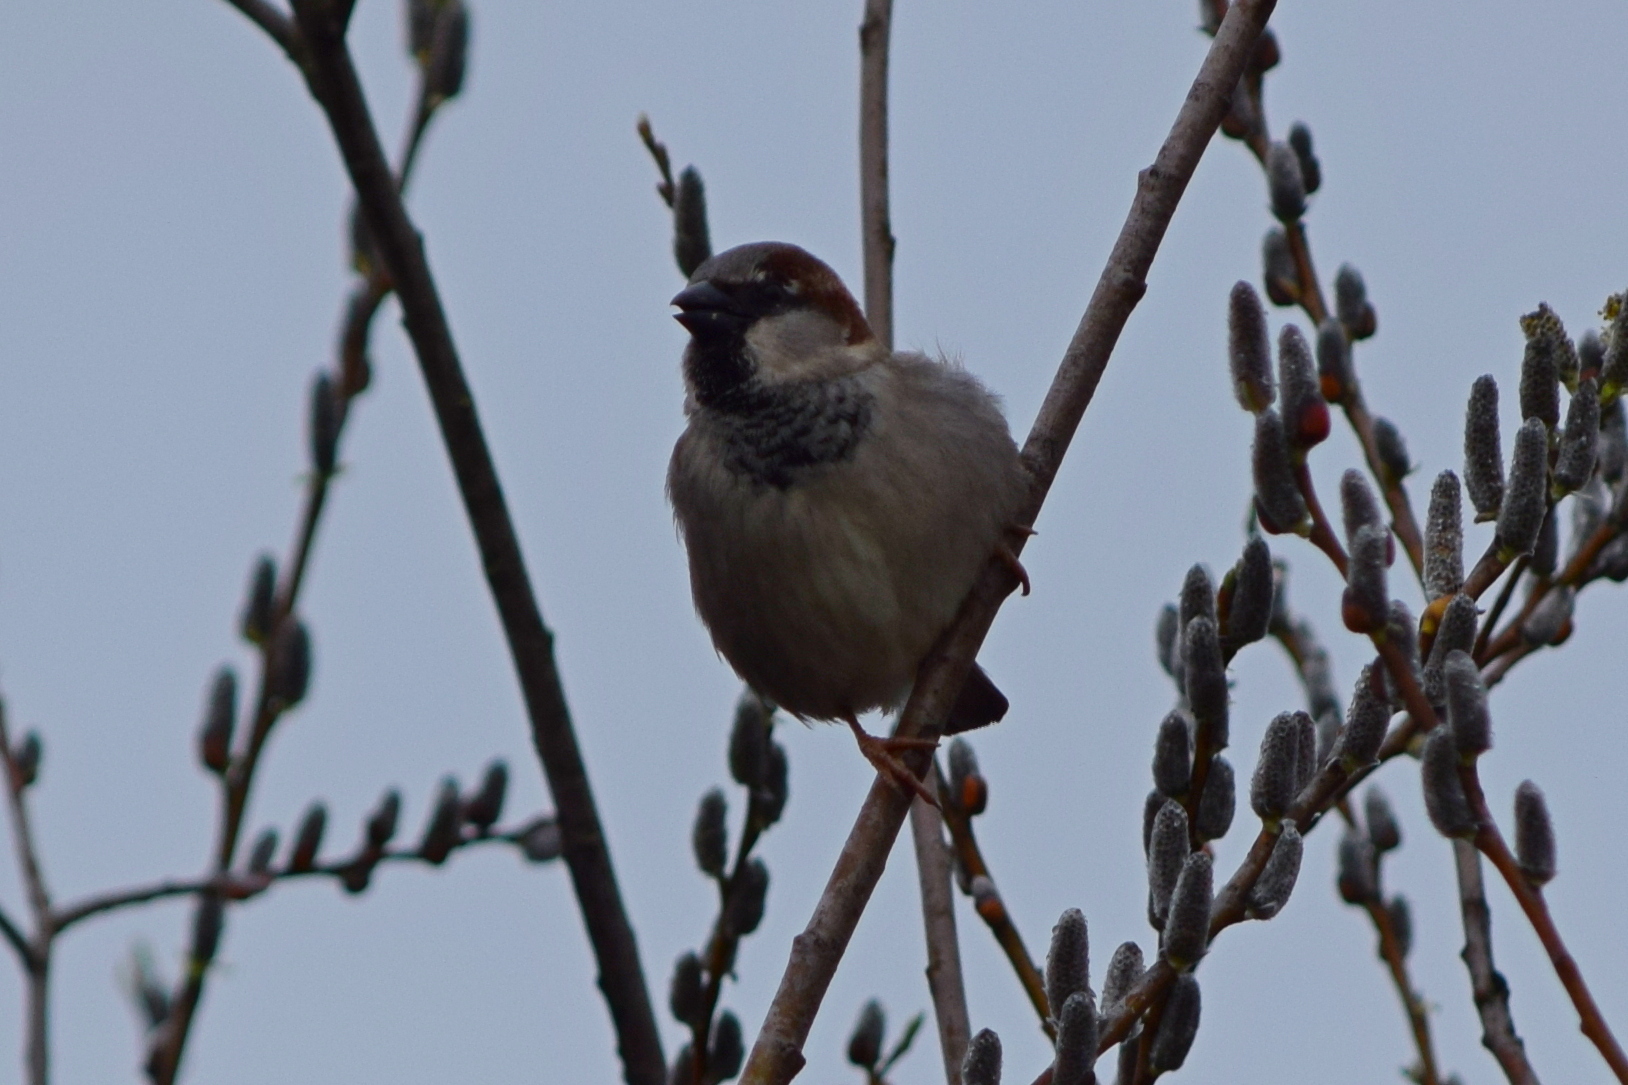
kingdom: Animalia
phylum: Chordata
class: Aves
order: Passeriformes
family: Passeridae
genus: Passer
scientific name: Passer domesticus
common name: House sparrow
